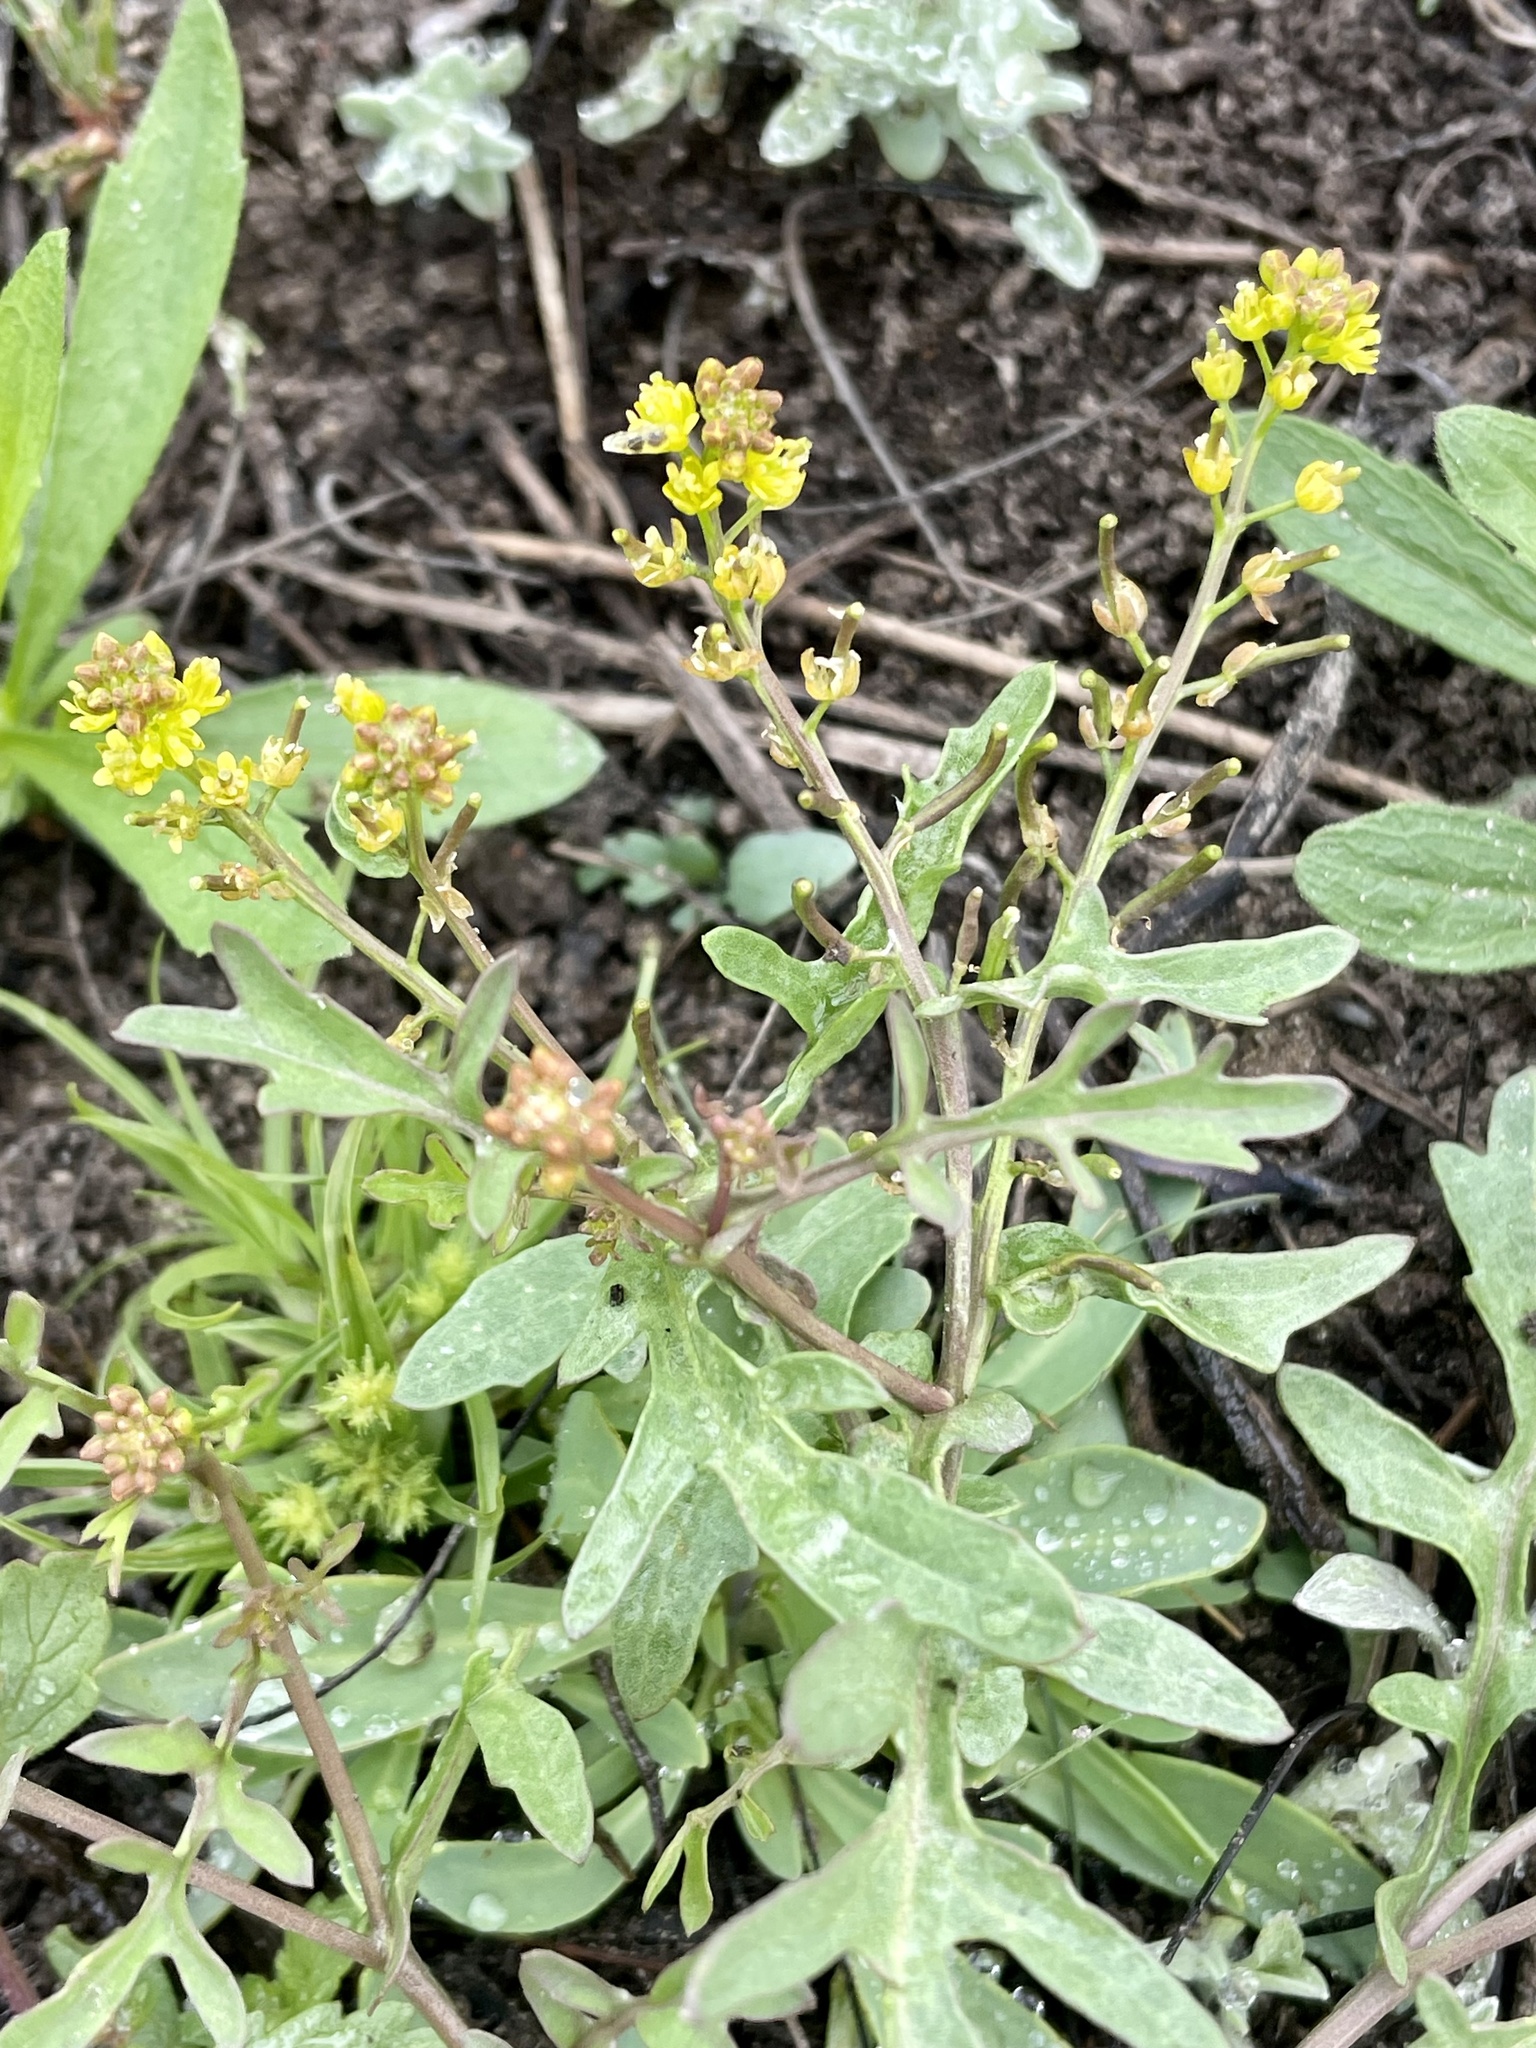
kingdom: Plantae
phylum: Tracheophyta
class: Magnoliopsida
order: Brassicales
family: Brassicaceae
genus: Rorippa
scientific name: Rorippa curvisiliqua
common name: Curve-pod yellow cress
